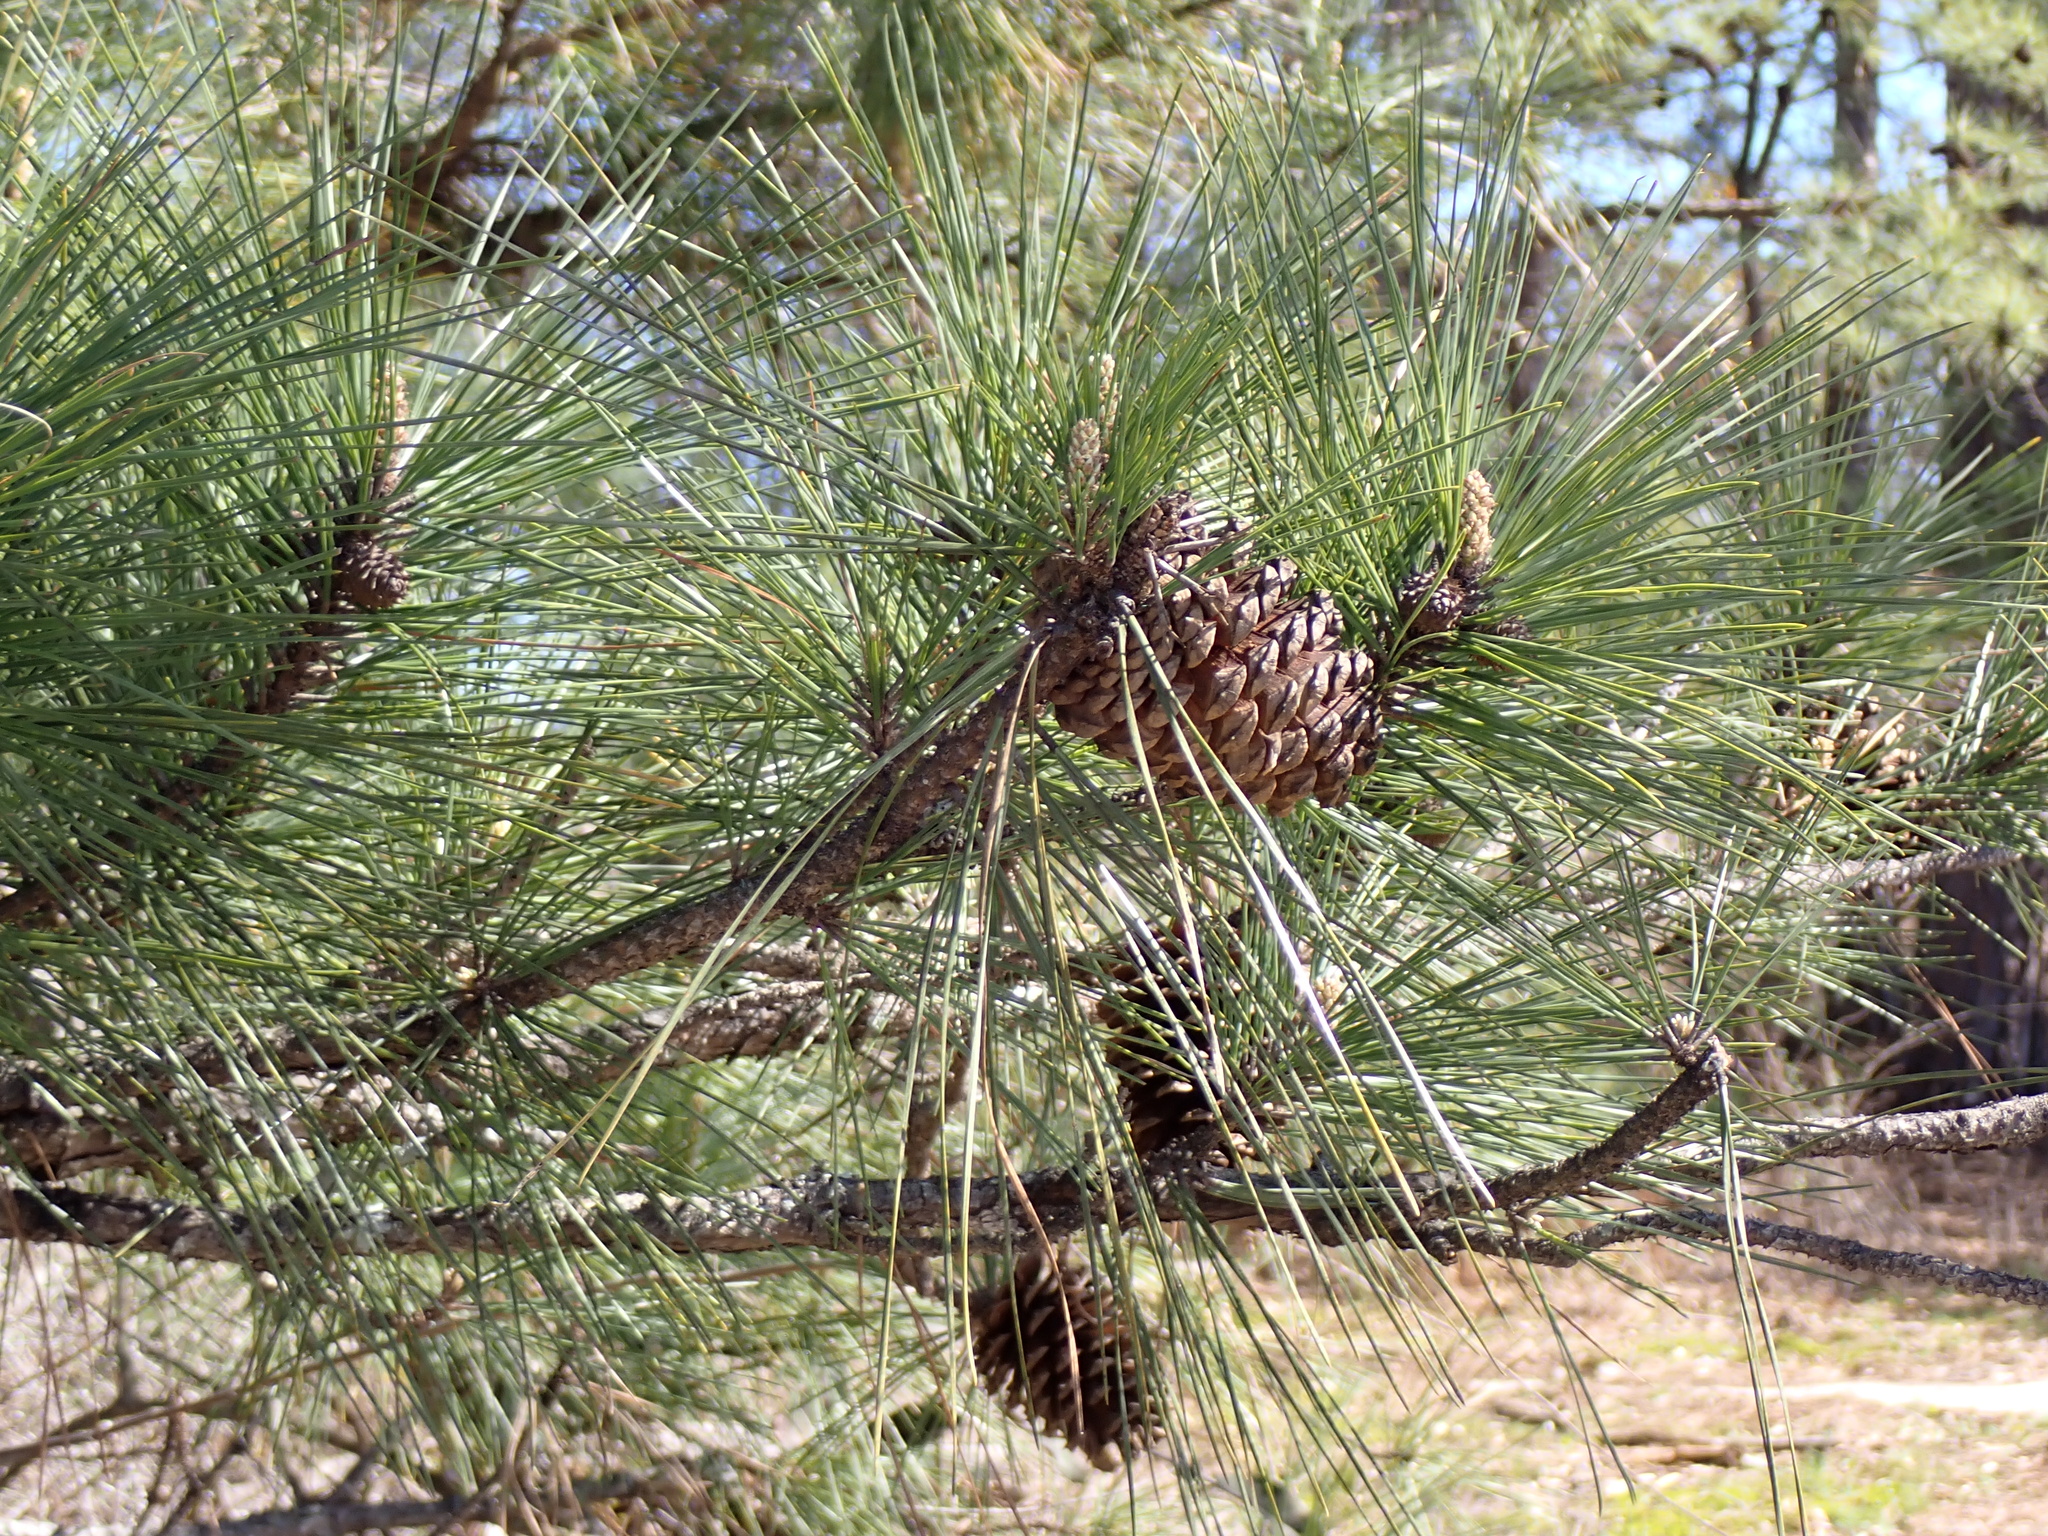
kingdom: Plantae
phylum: Tracheophyta
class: Pinopsida
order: Pinales
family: Pinaceae
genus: Pinus
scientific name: Pinus taeda
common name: Loblolly pine
